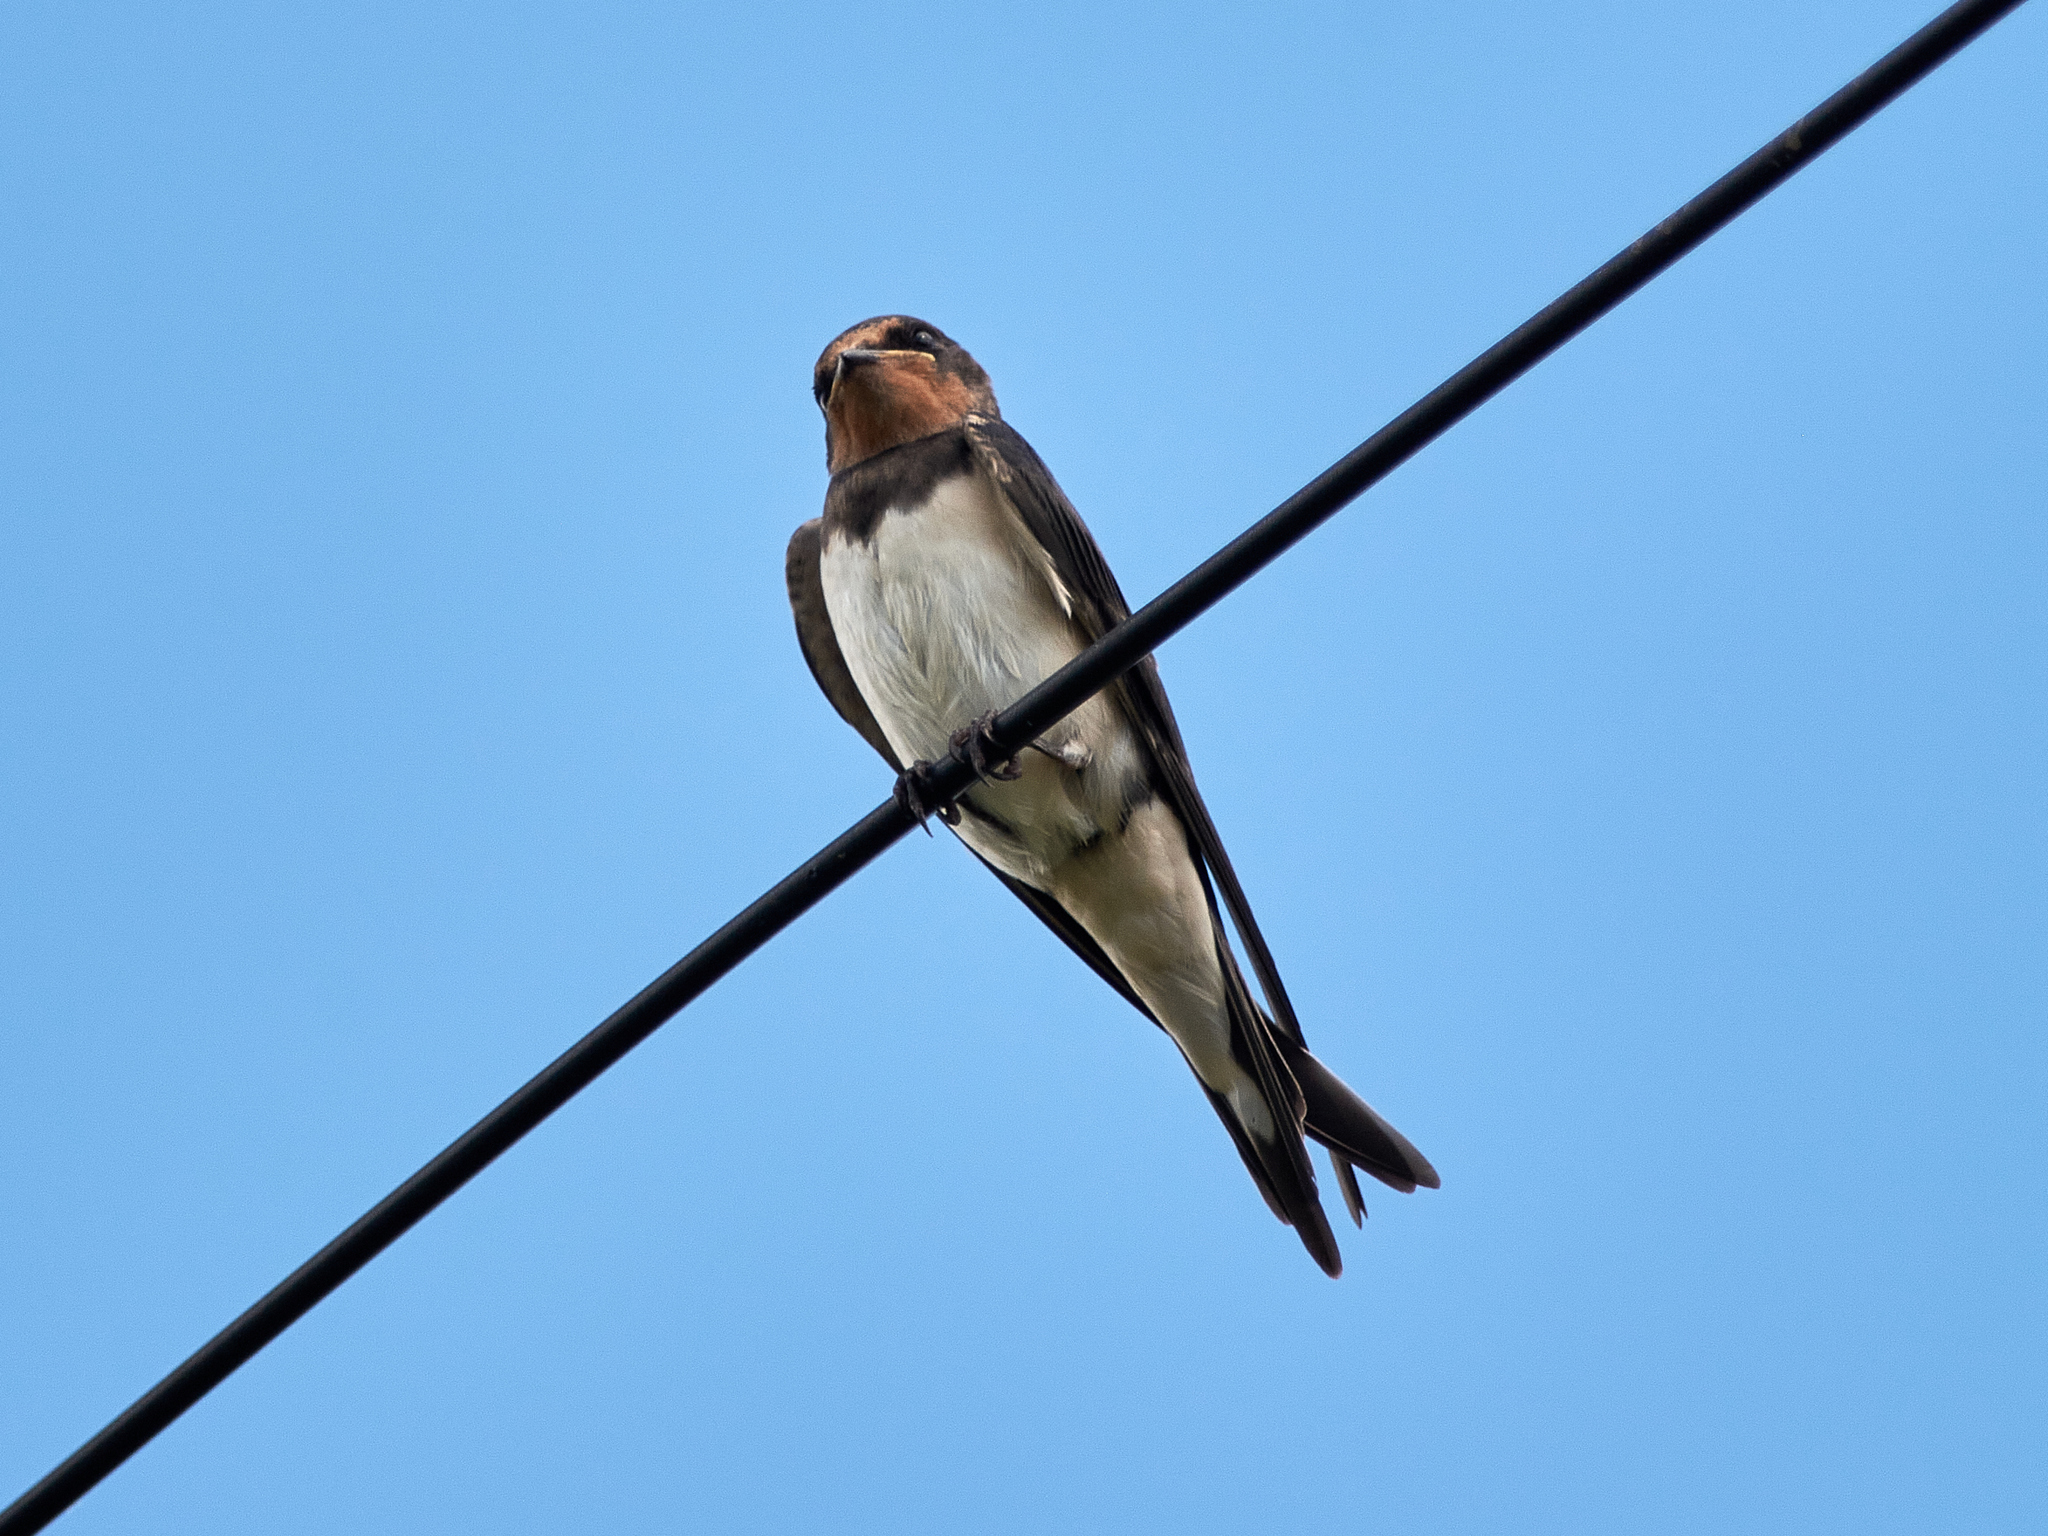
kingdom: Animalia
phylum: Chordata
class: Aves
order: Passeriformes
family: Hirundinidae
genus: Hirundo
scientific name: Hirundo rustica
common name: Barn swallow
